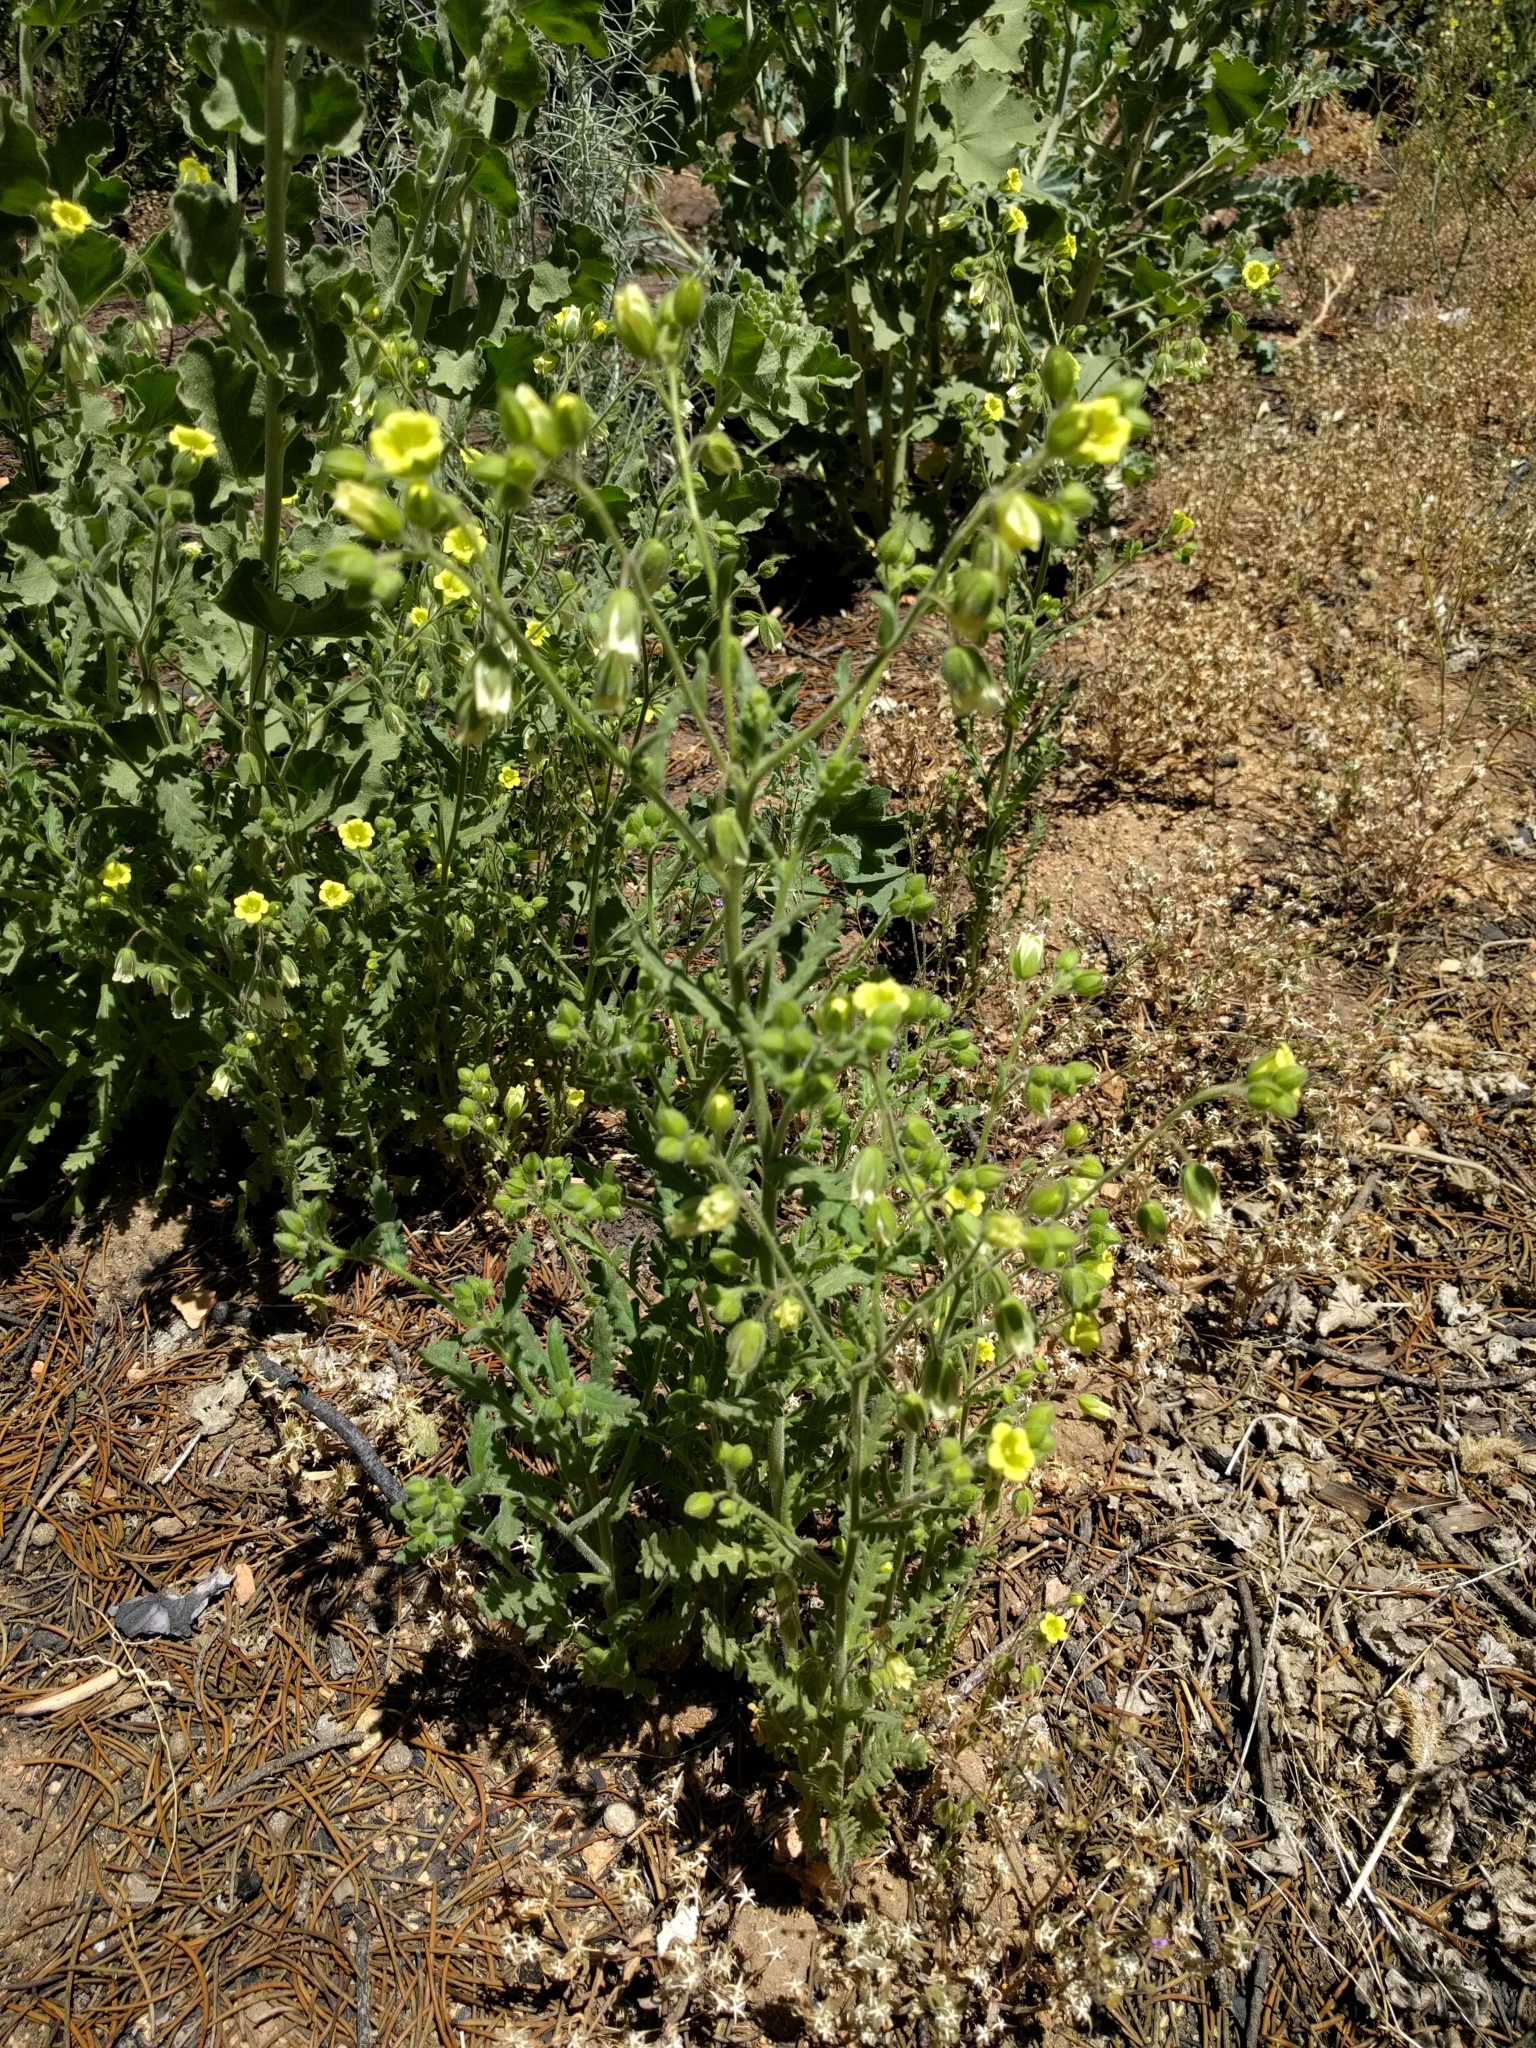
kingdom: Plantae
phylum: Tracheophyta
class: Magnoliopsida
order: Boraginales
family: Hydrophyllaceae
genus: Emmenanthe
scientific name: Emmenanthe penduliflora
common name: Whispering-bells
